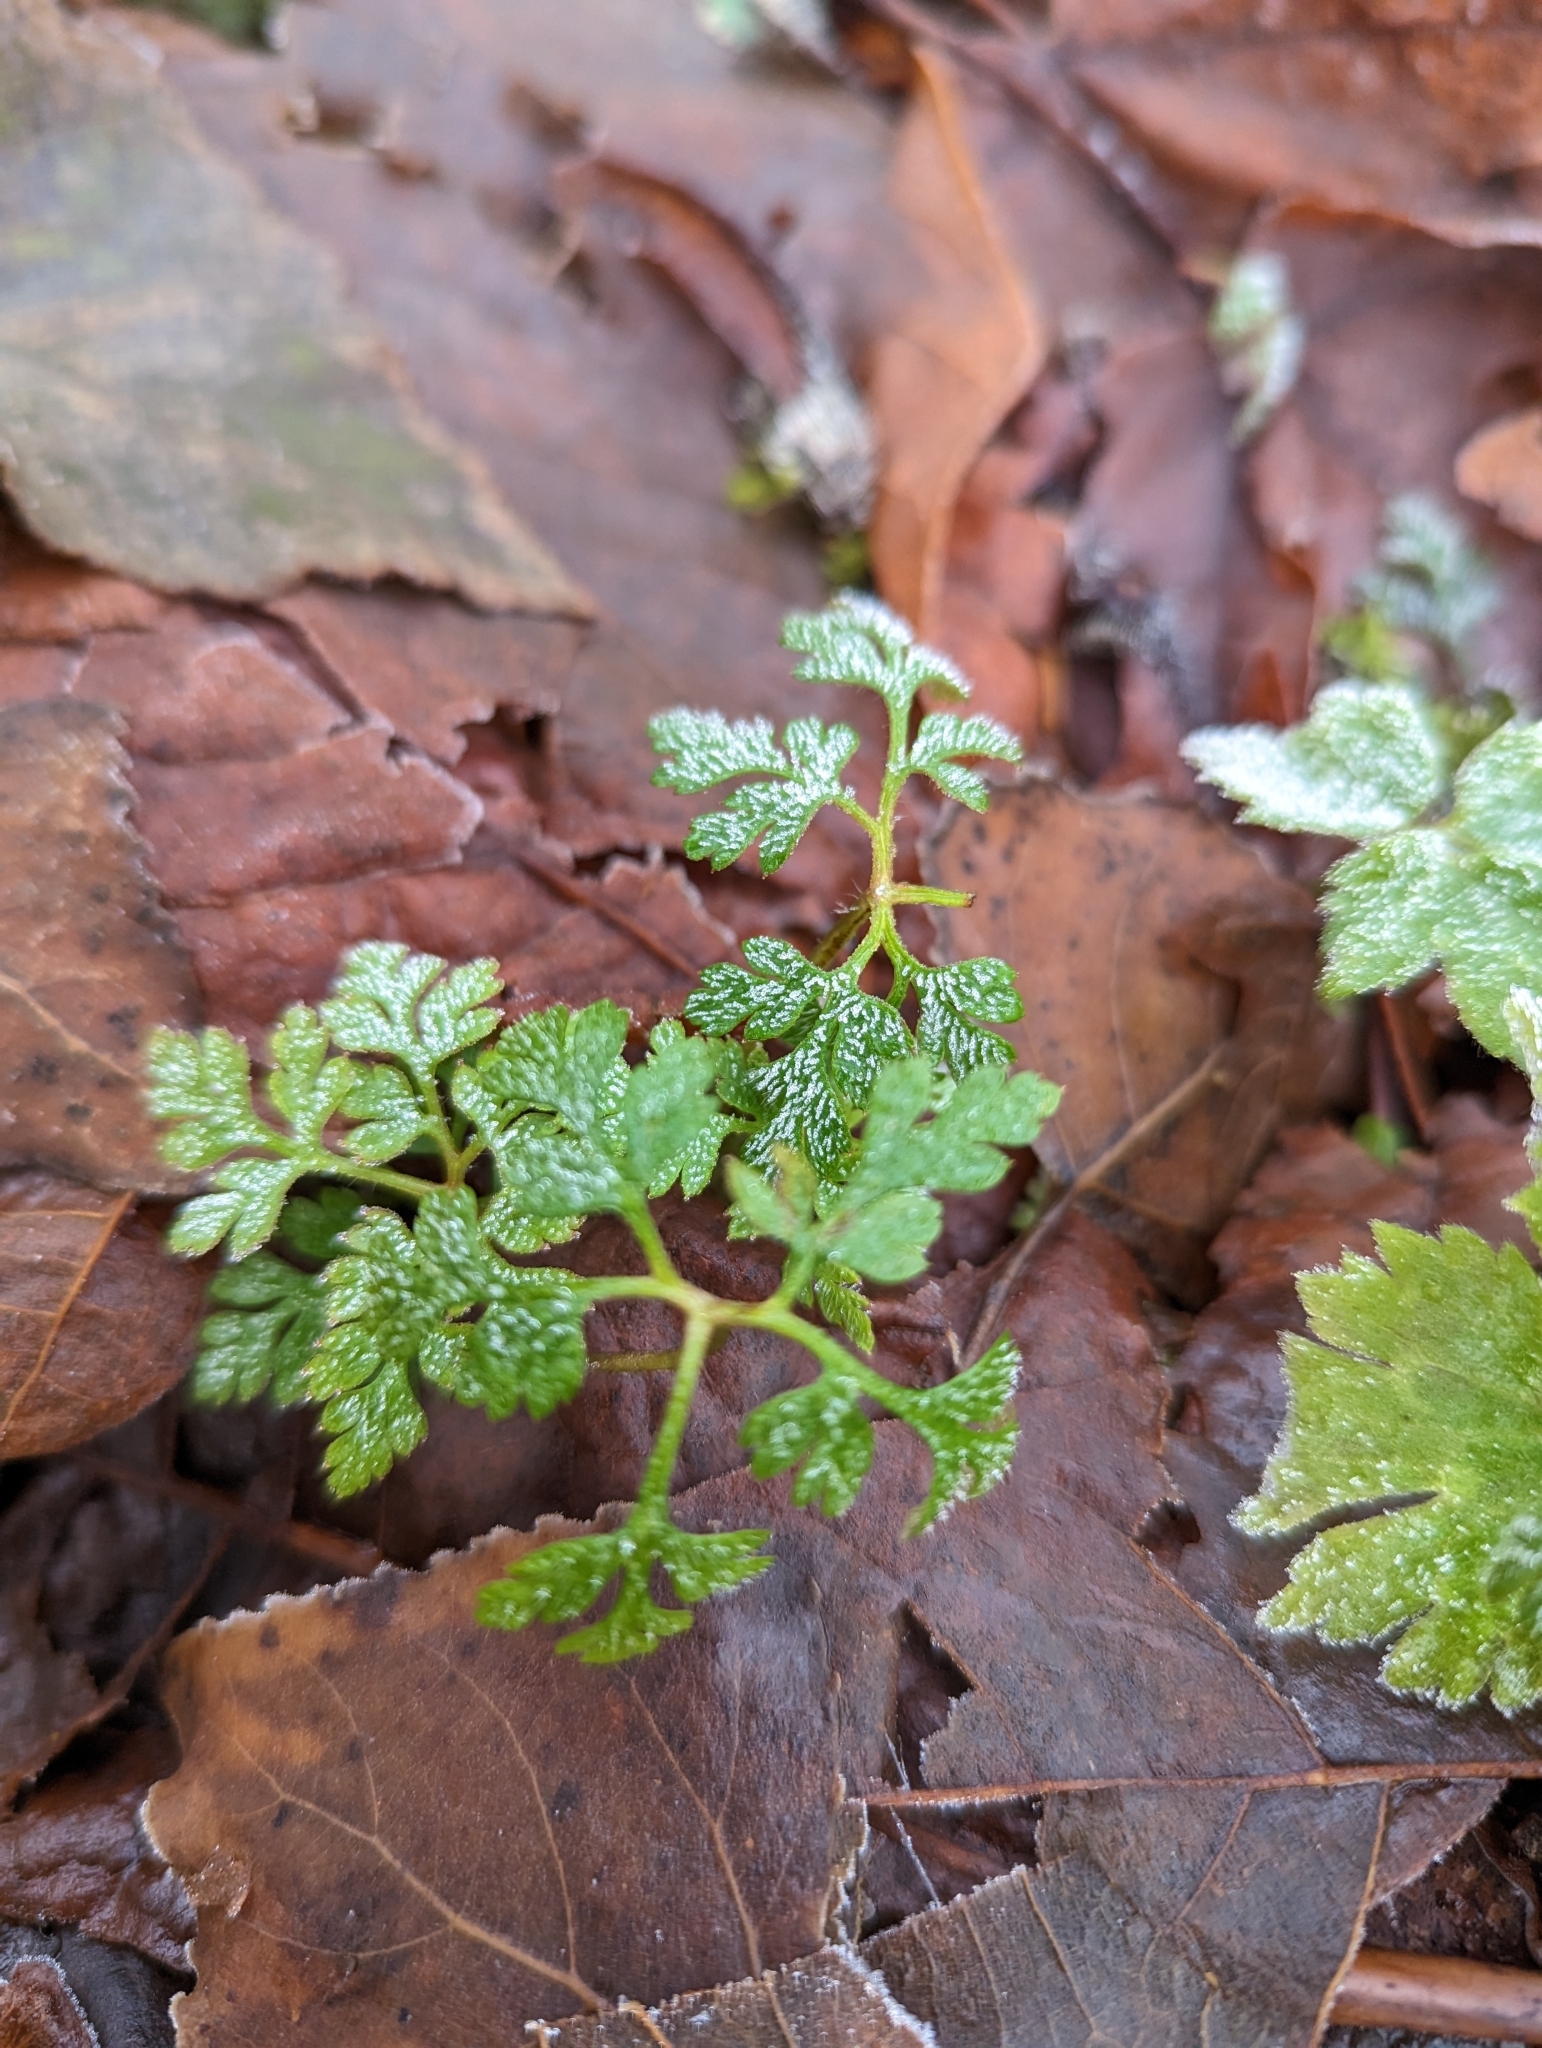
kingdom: Plantae
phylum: Tracheophyta
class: Magnoliopsida
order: Geraniales
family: Geraniaceae
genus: Geranium
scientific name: Geranium robertianum
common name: Herb-robert
